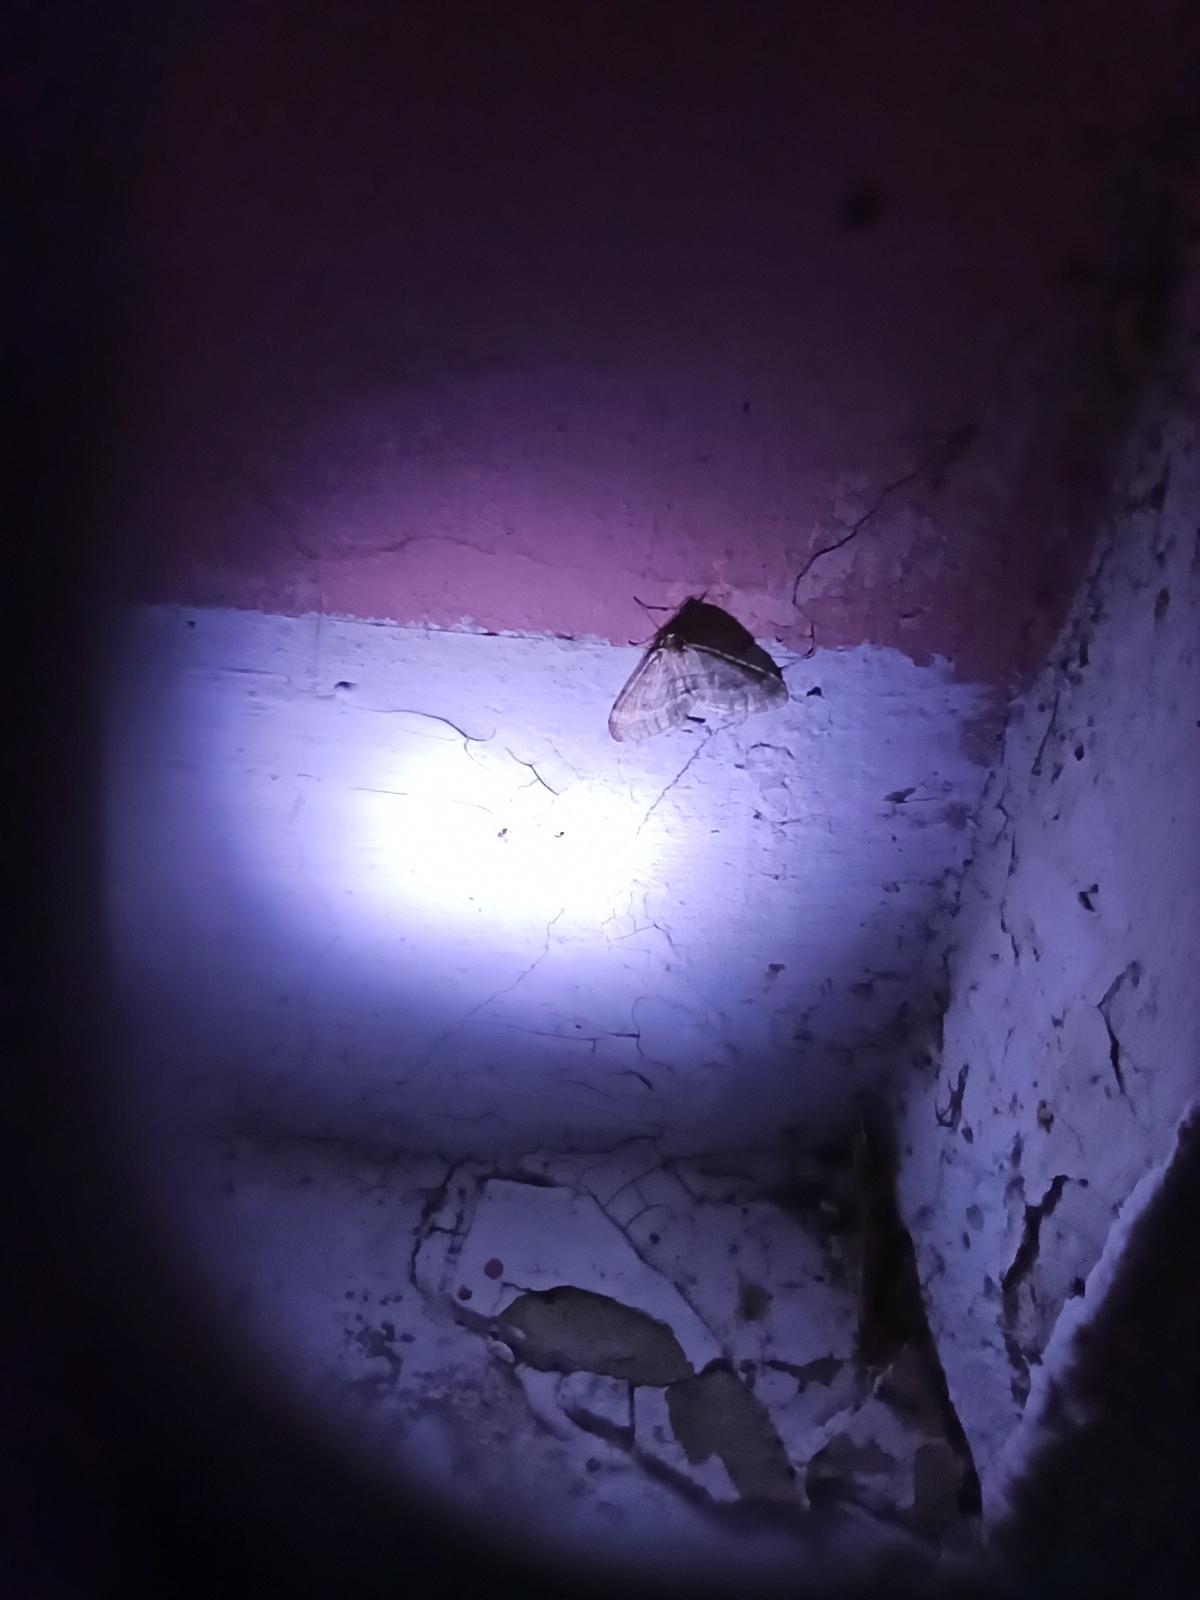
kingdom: Animalia
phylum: Arthropoda
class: Insecta
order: Lepidoptera
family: Geometridae
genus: Operophtera
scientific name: Operophtera brumata
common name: Winter moth
